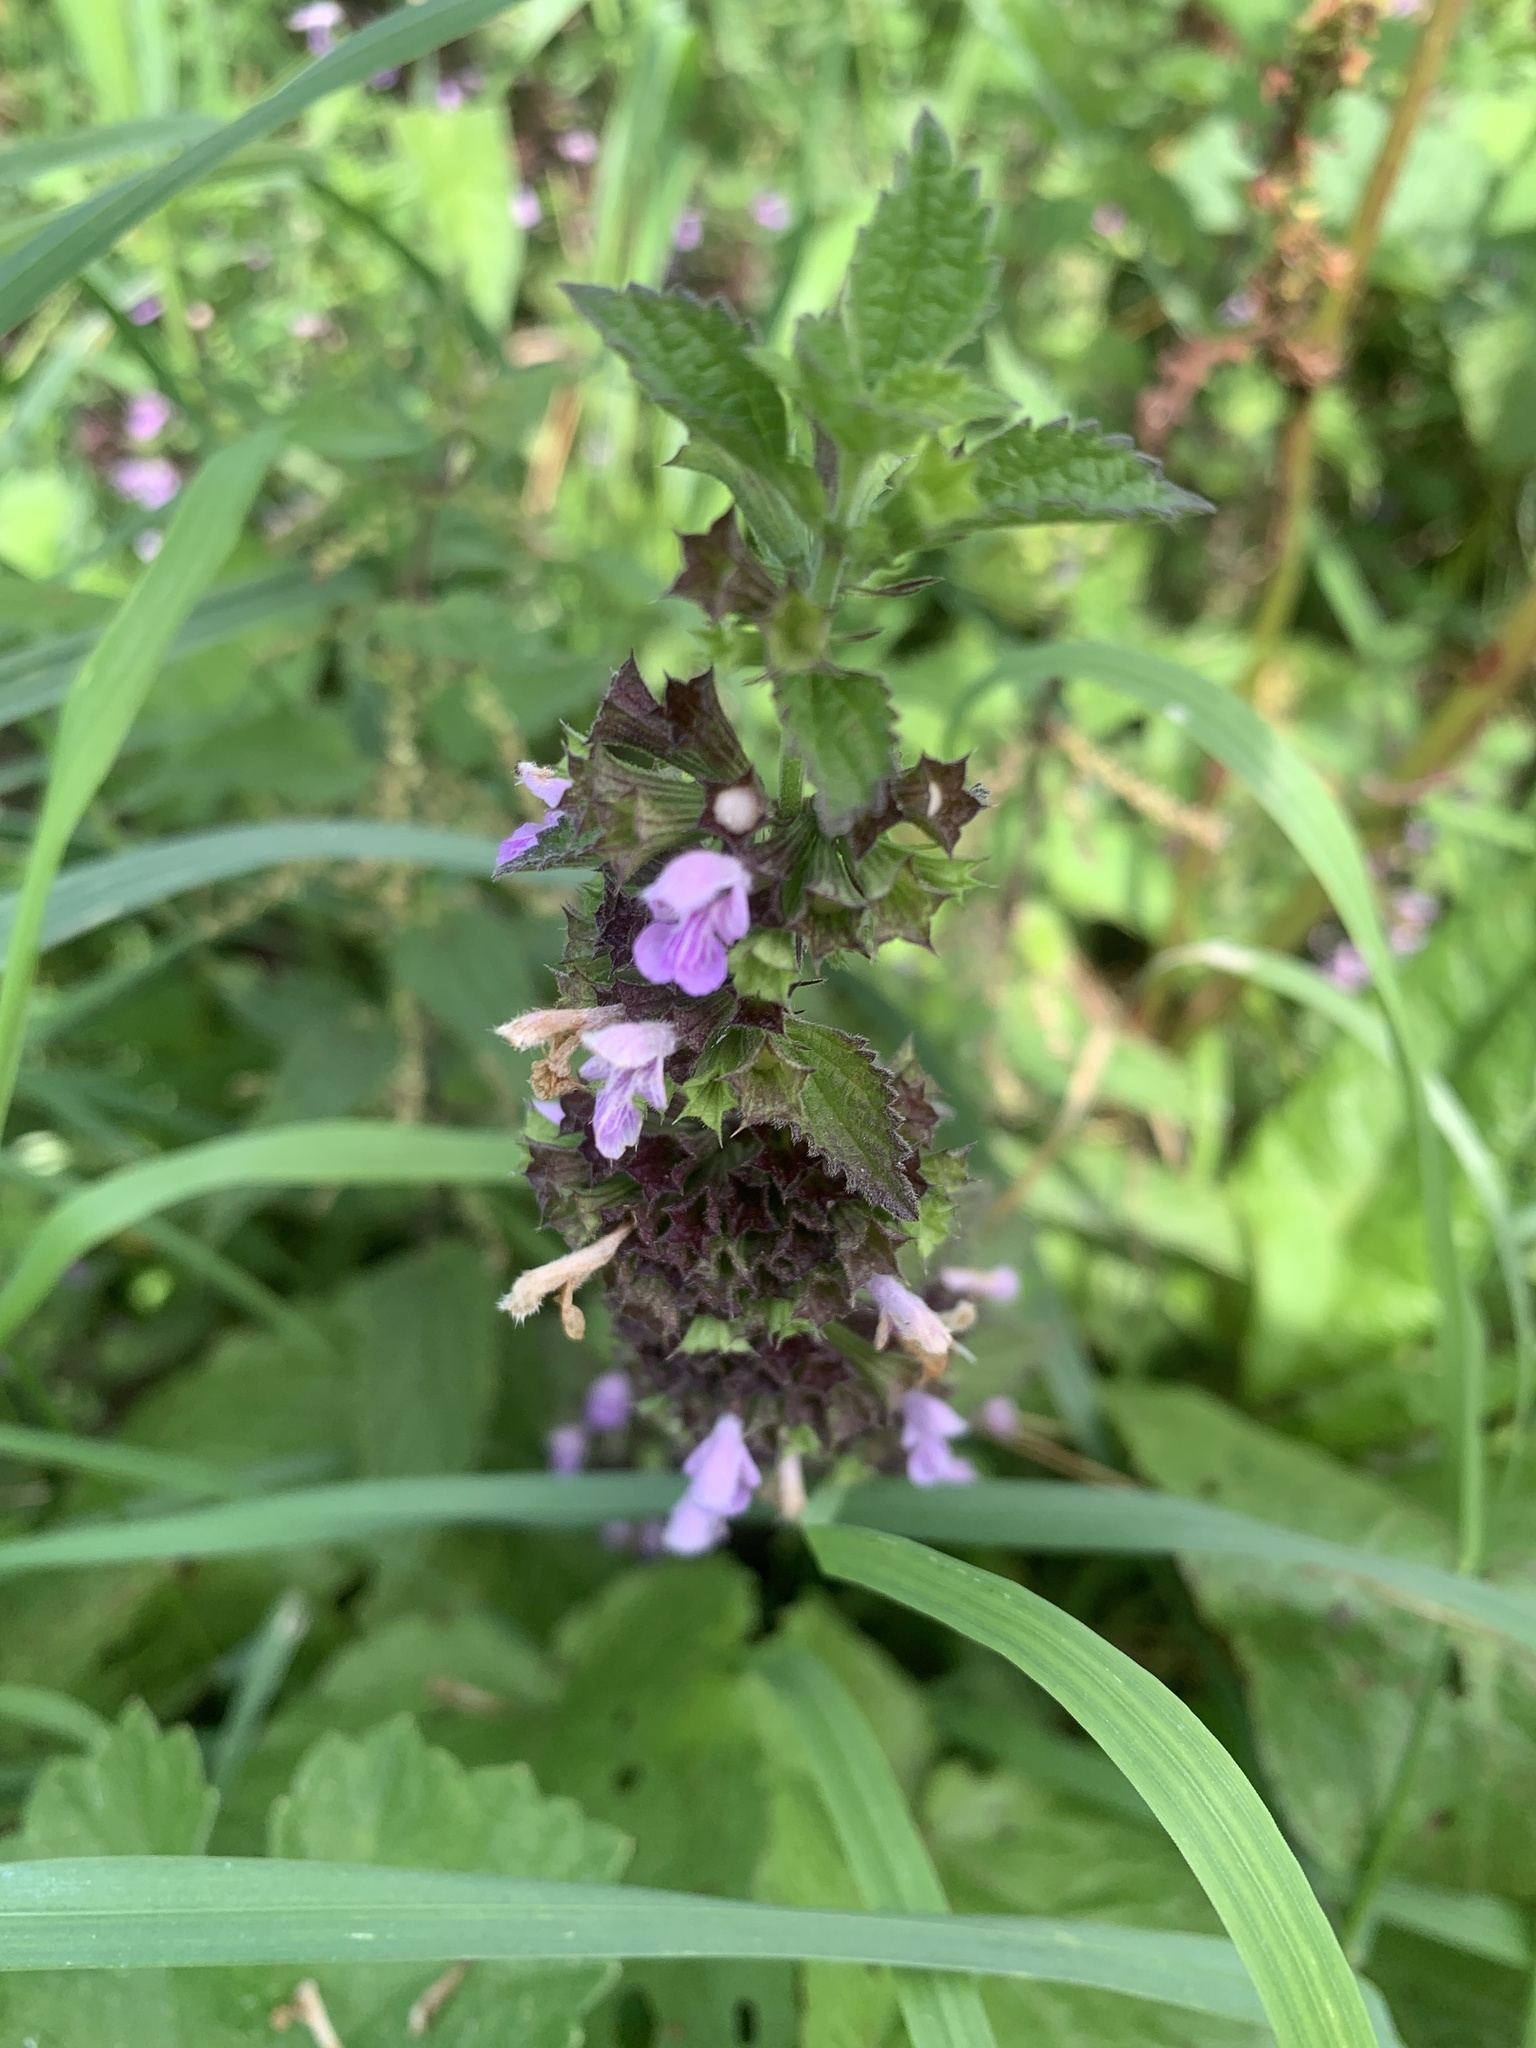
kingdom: Plantae
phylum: Tracheophyta
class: Magnoliopsida
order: Lamiales
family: Lamiaceae
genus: Ballota
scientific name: Ballota nigra
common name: Black horehound
